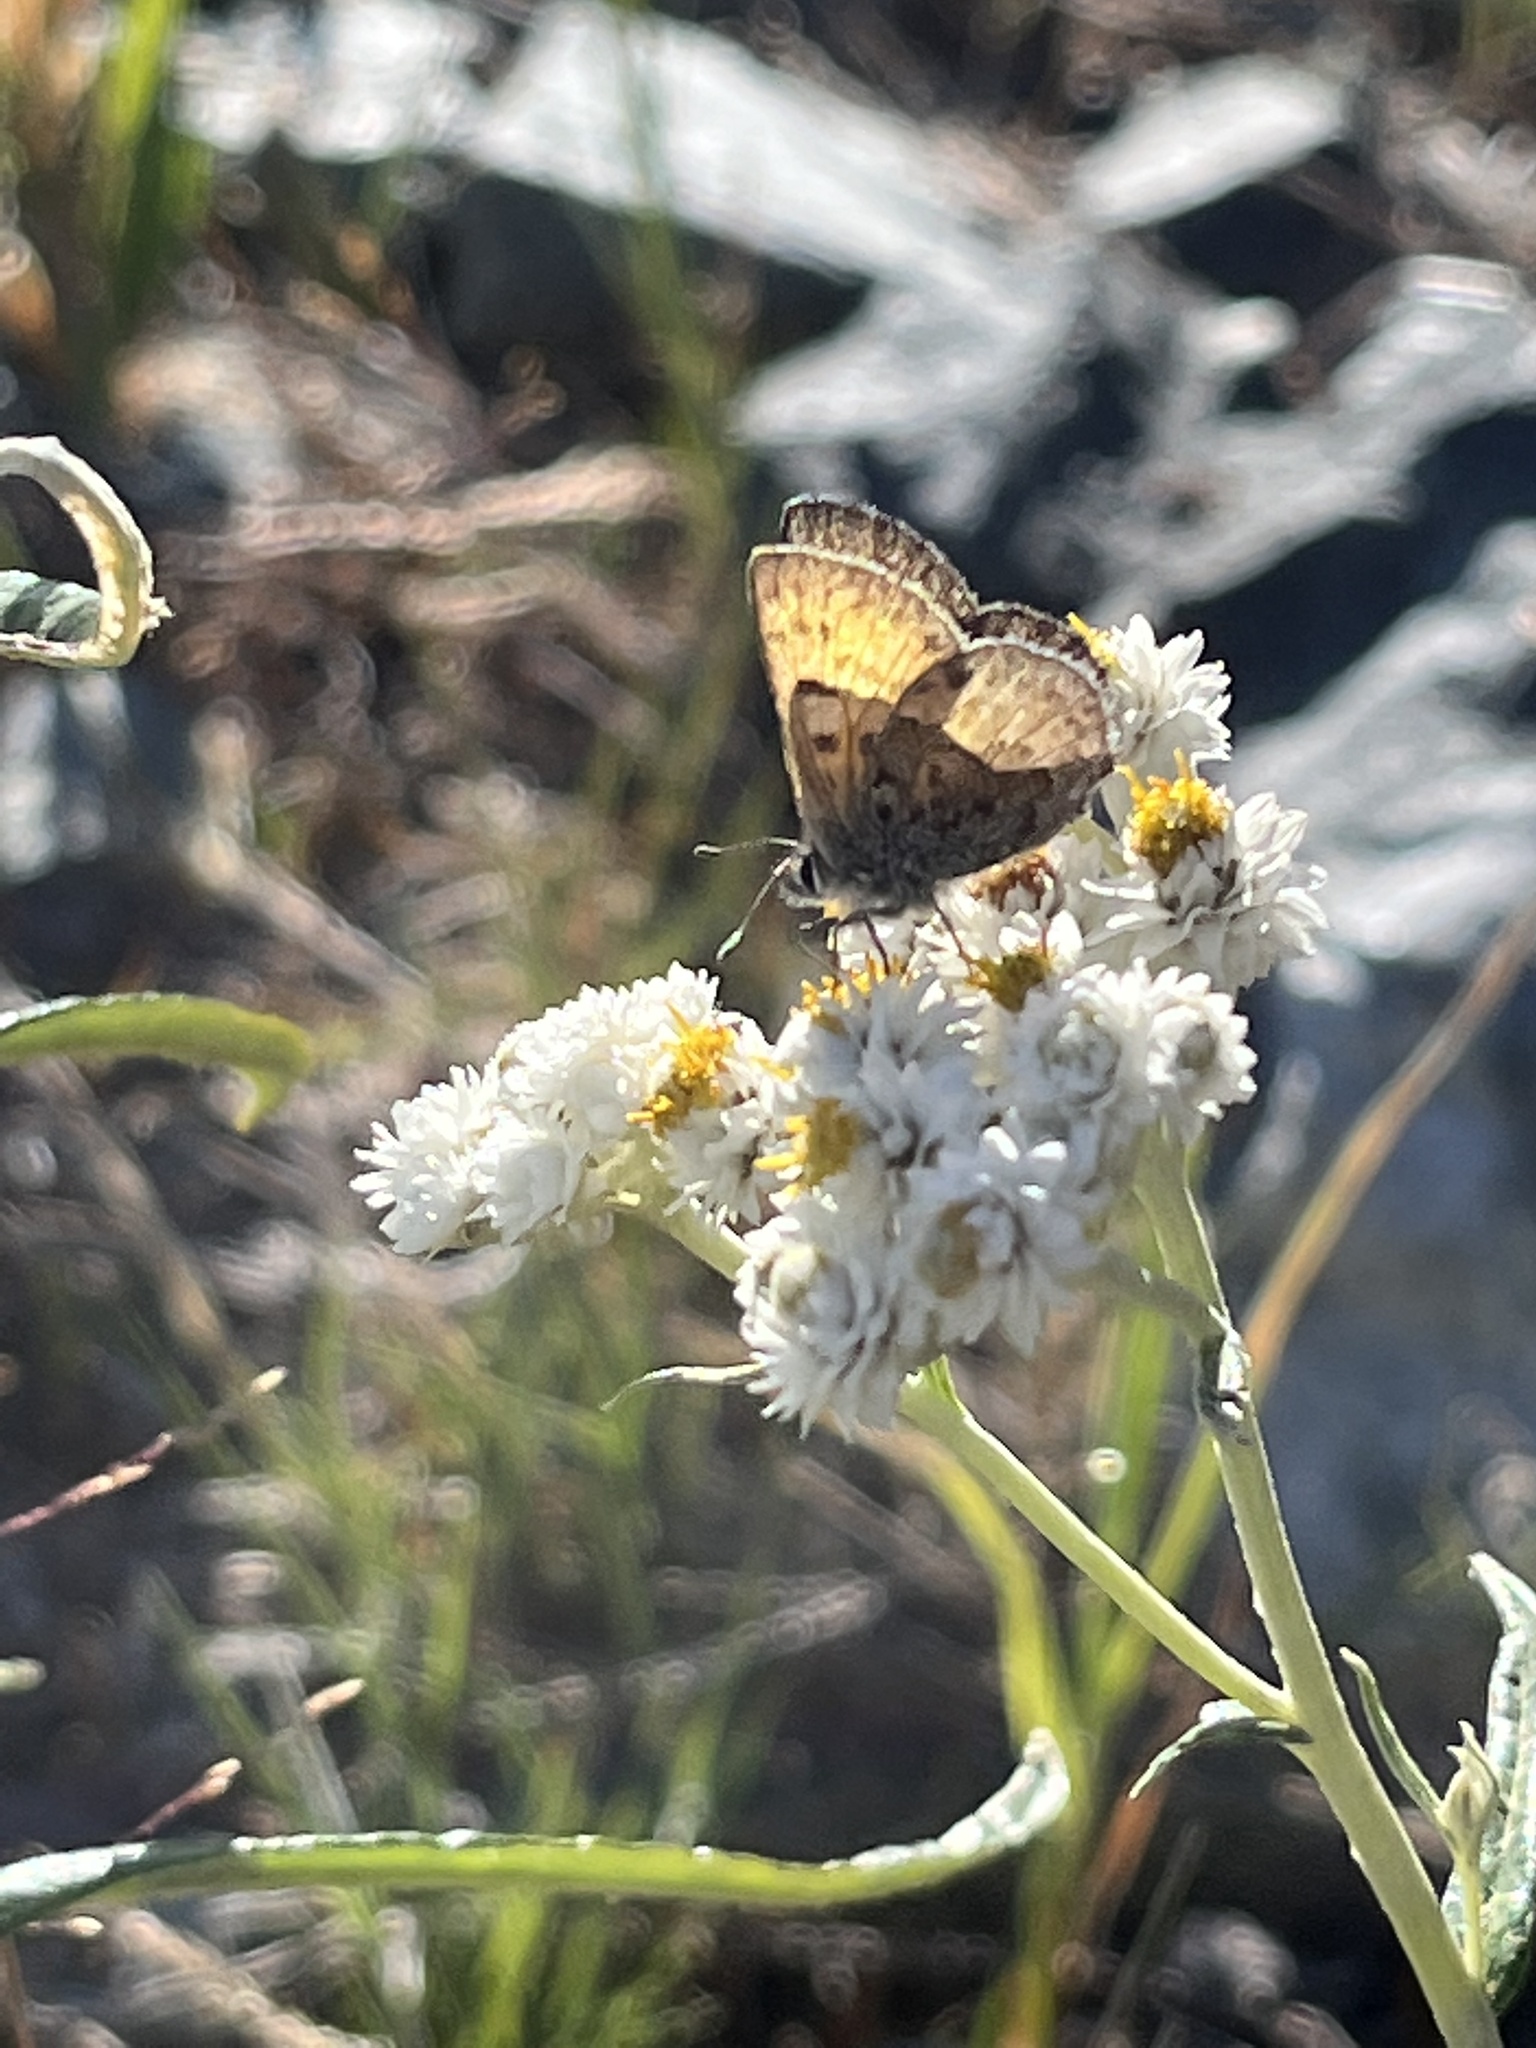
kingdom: Animalia
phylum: Arthropoda
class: Insecta
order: Lepidoptera
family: Lycaenidae
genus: Tharsalea
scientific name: Tharsalea mariposa
